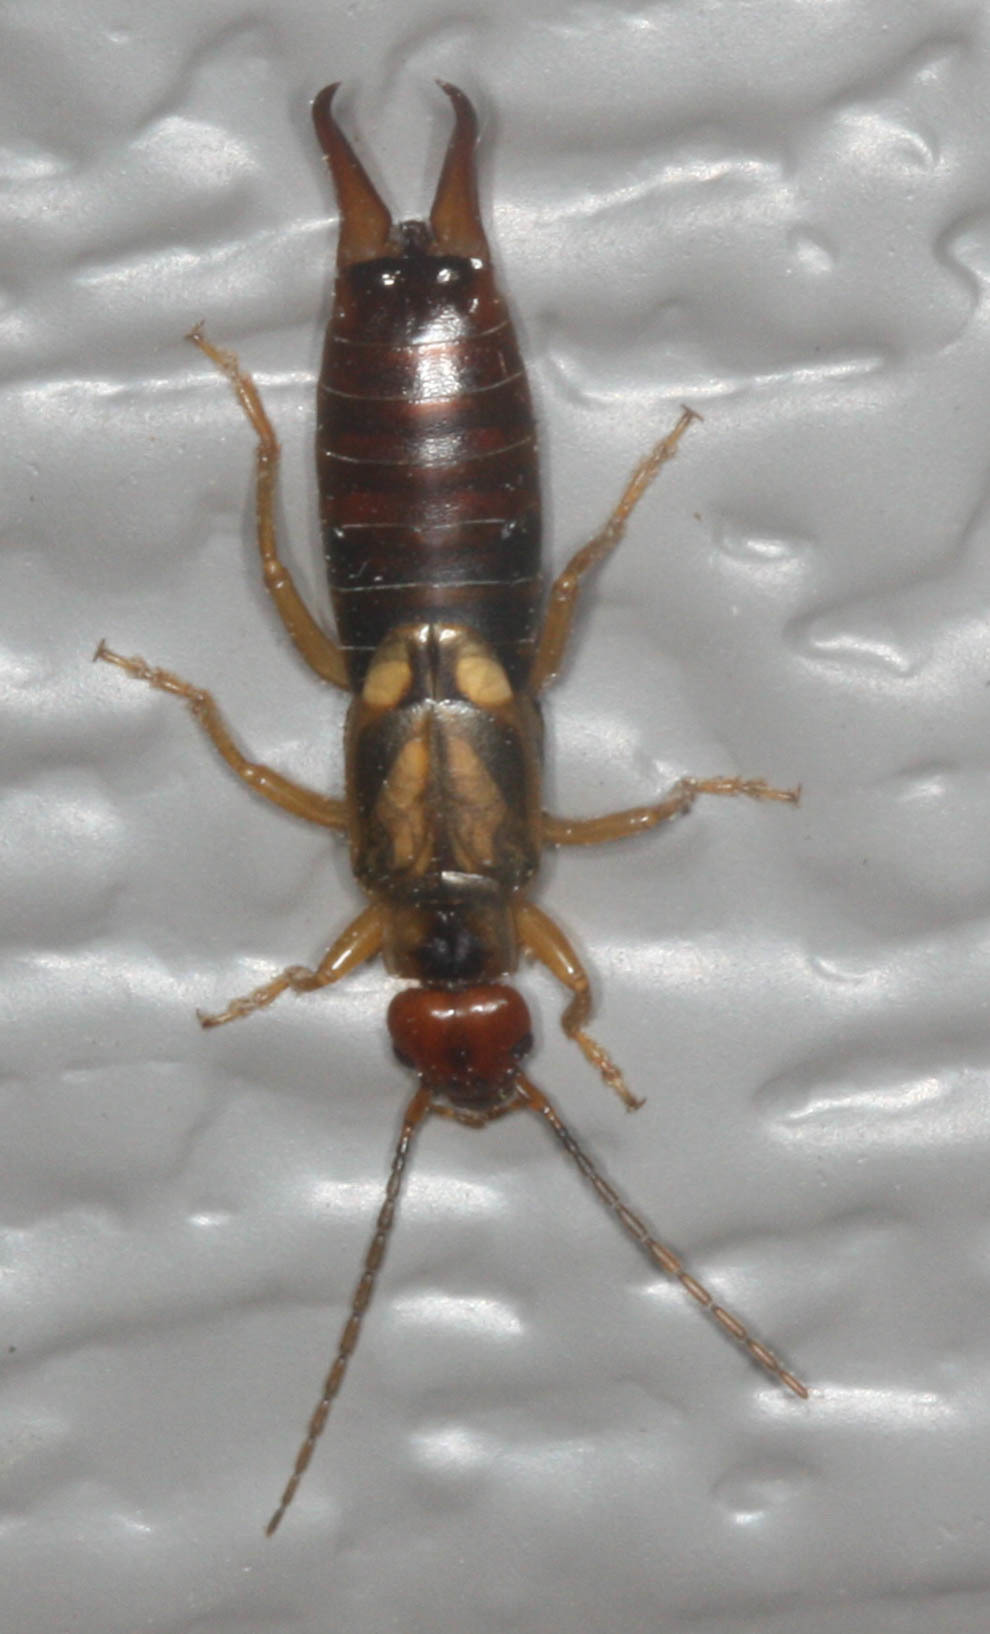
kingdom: Animalia
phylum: Arthropoda
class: Insecta
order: Dermaptera
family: Forficulidae
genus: Forficula
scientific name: Forficula
